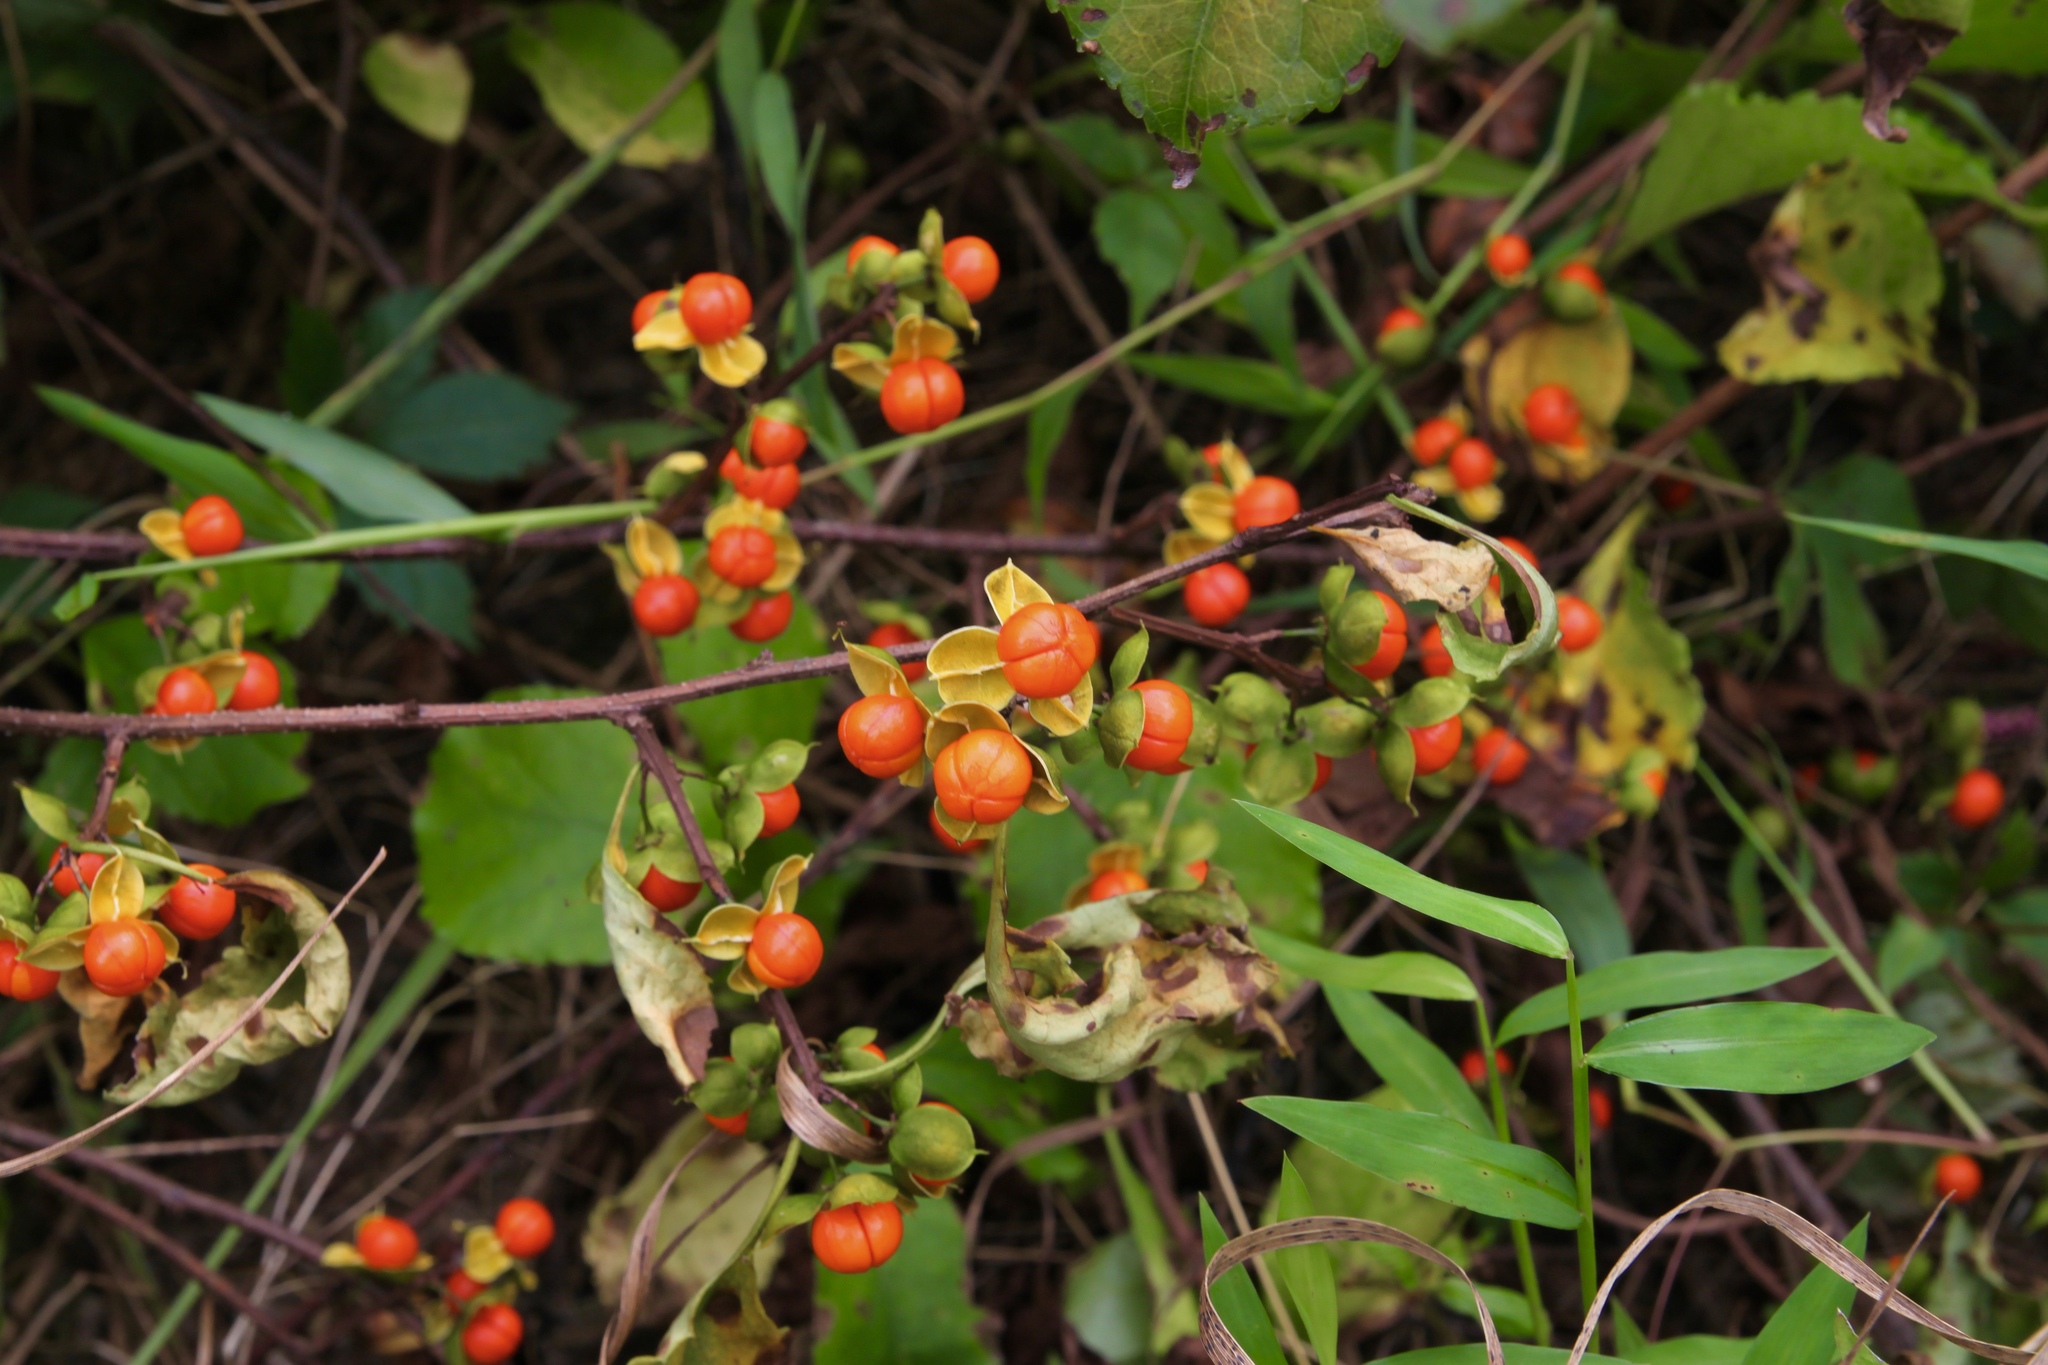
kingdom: Plantae
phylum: Tracheophyta
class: Magnoliopsida
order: Celastrales
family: Celastraceae
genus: Celastrus
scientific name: Celastrus orbiculatus
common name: Oriental bittersweet
